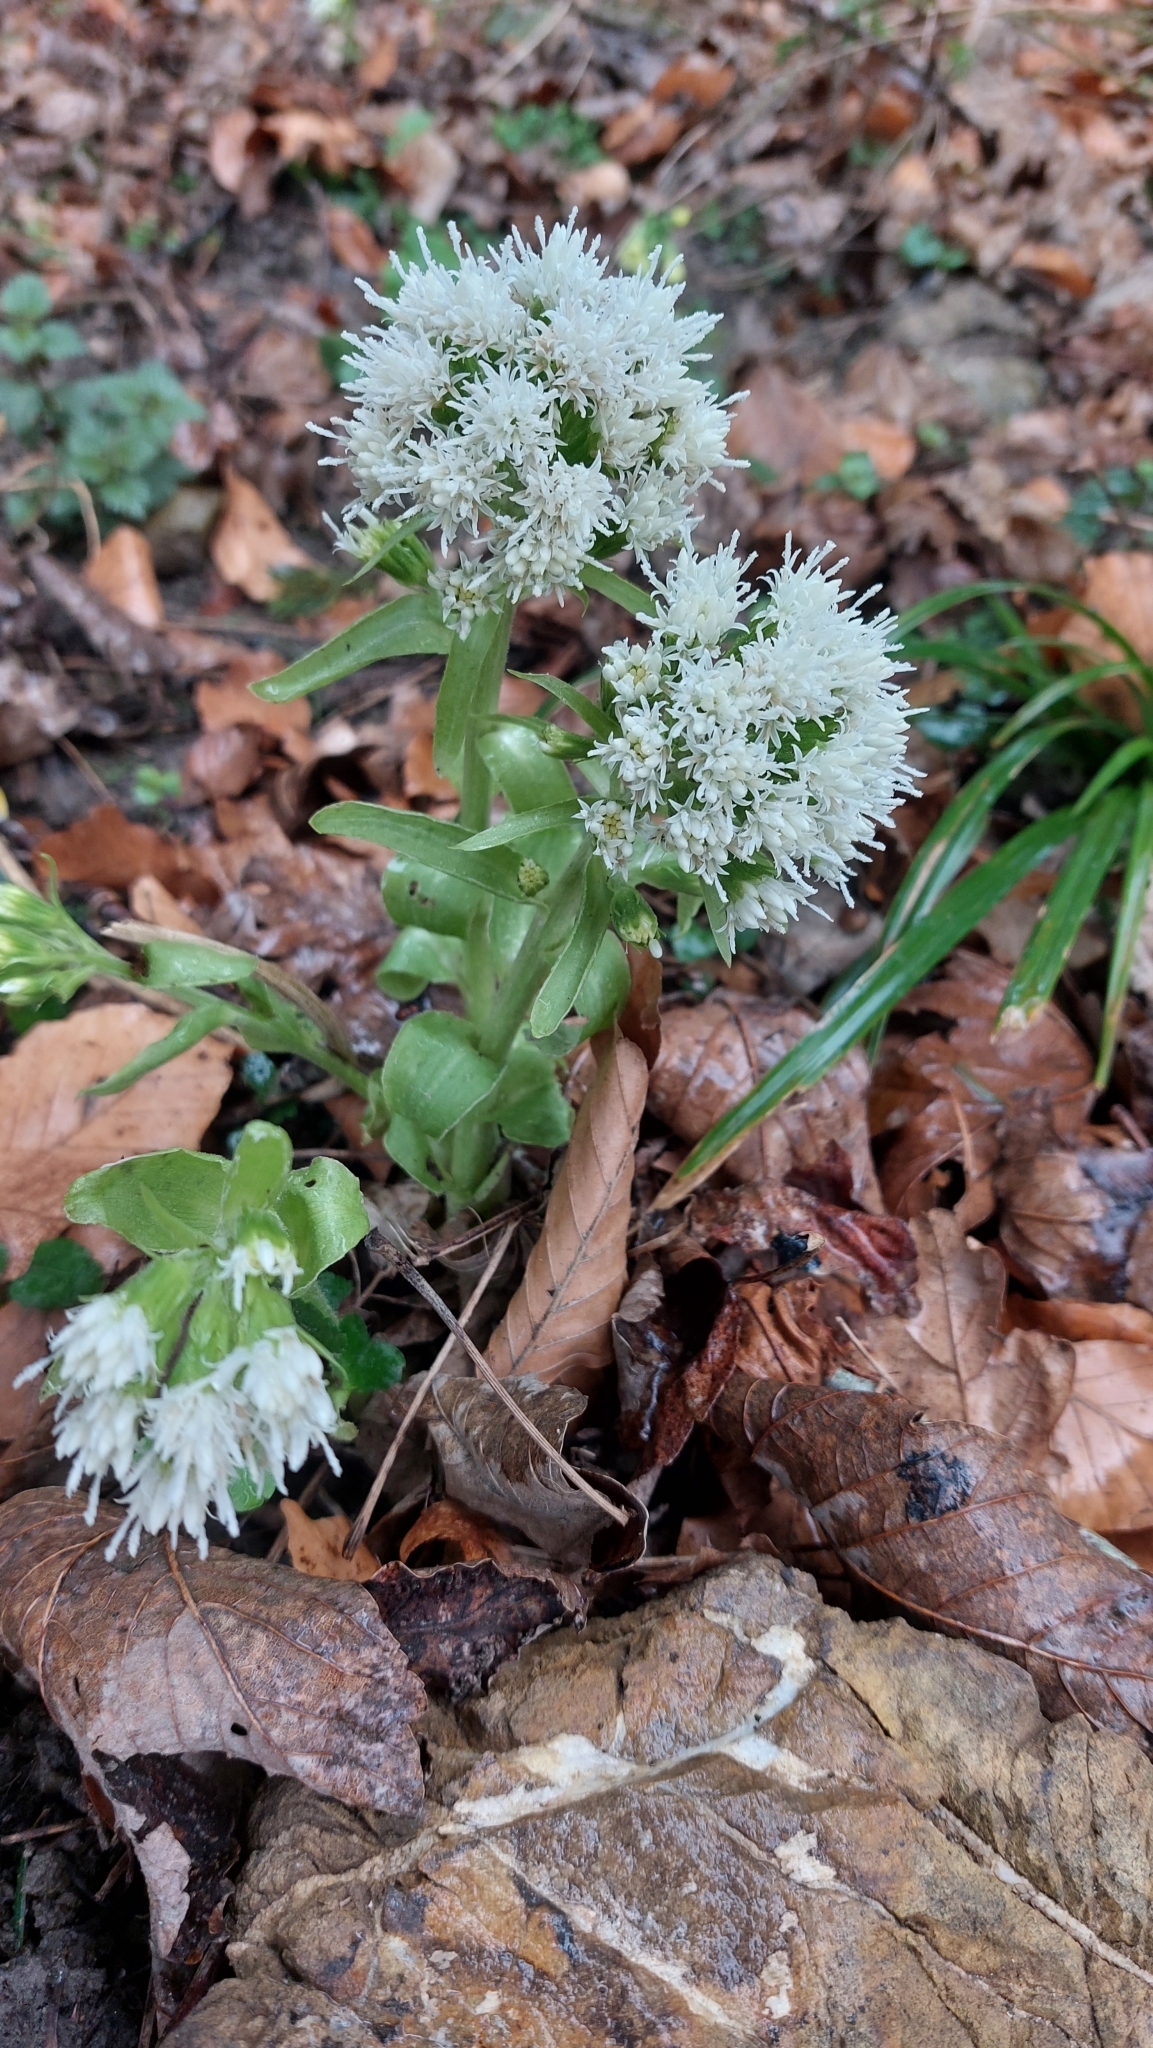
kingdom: Plantae
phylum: Tracheophyta
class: Magnoliopsida
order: Asterales
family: Asteraceae
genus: Petasites
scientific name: Petasites albus
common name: White butterbur
